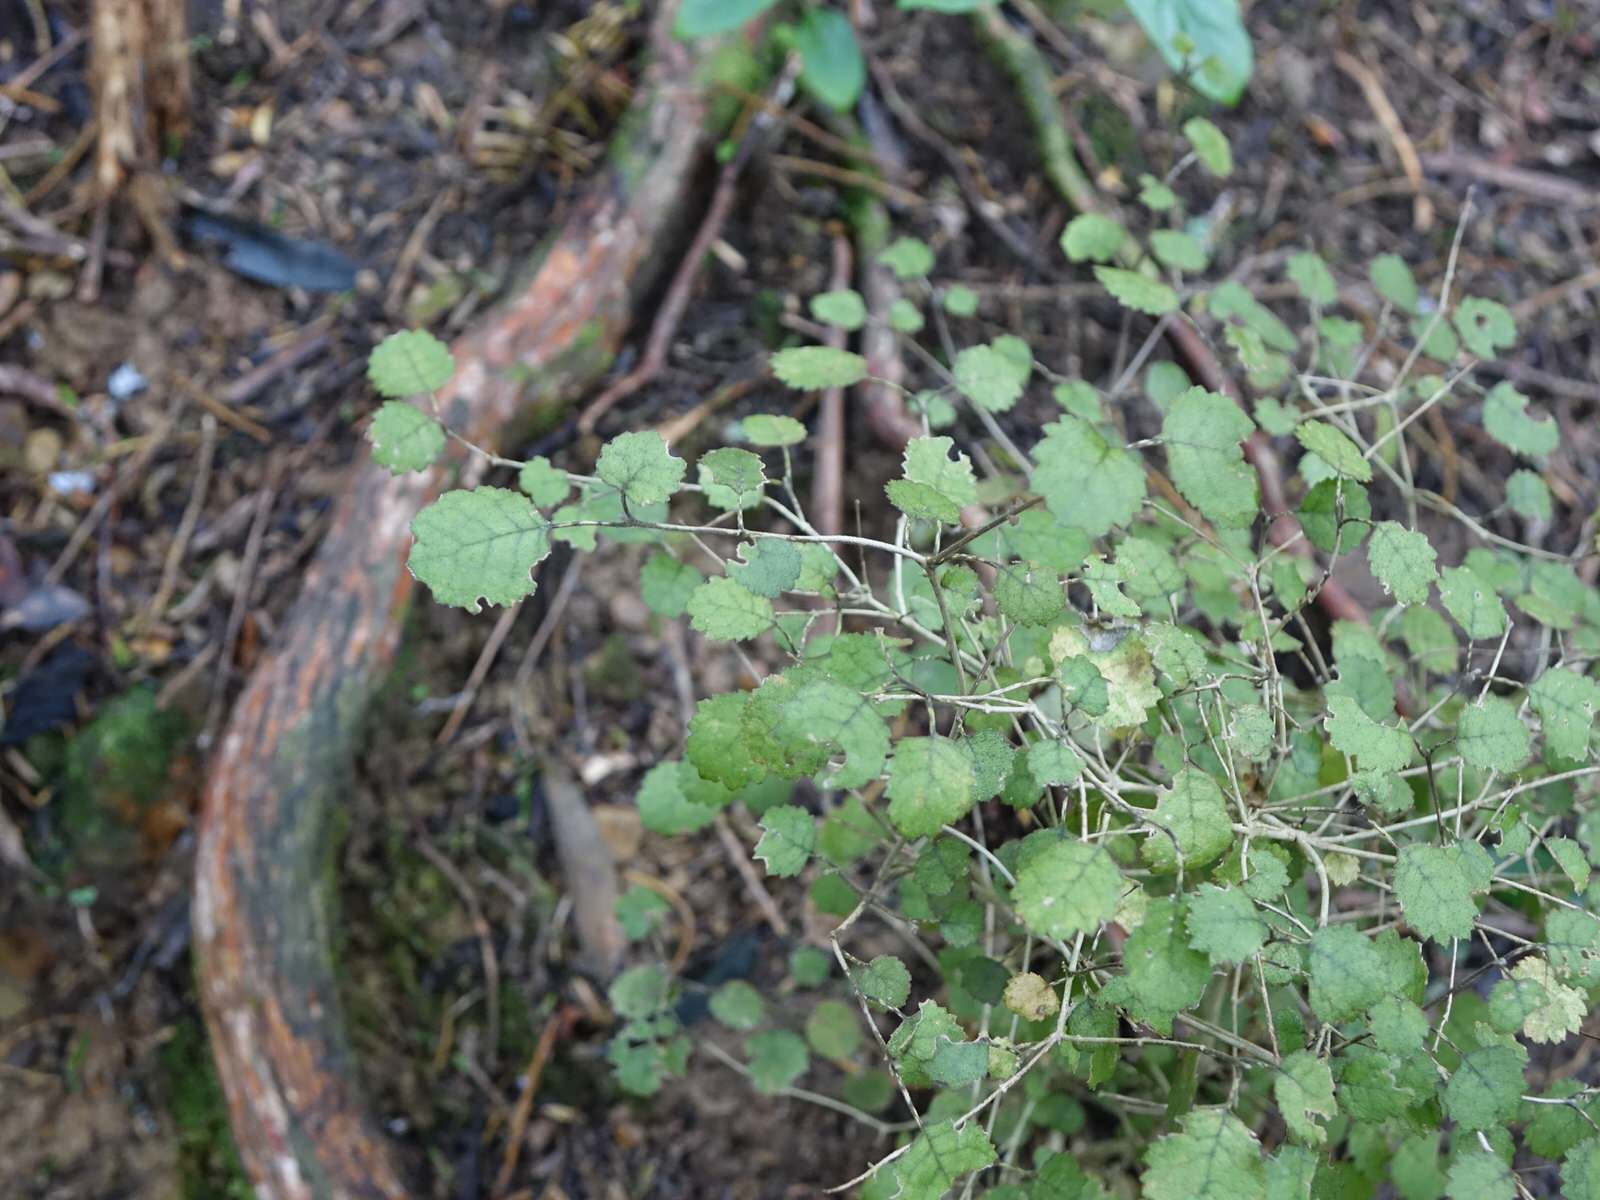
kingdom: Plantae
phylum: Tracheophyta
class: Magnoliopsida
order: Lamiales
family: Gesneriaceae
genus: Rhabdothamnus
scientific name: Rhabdothamnus solandri
